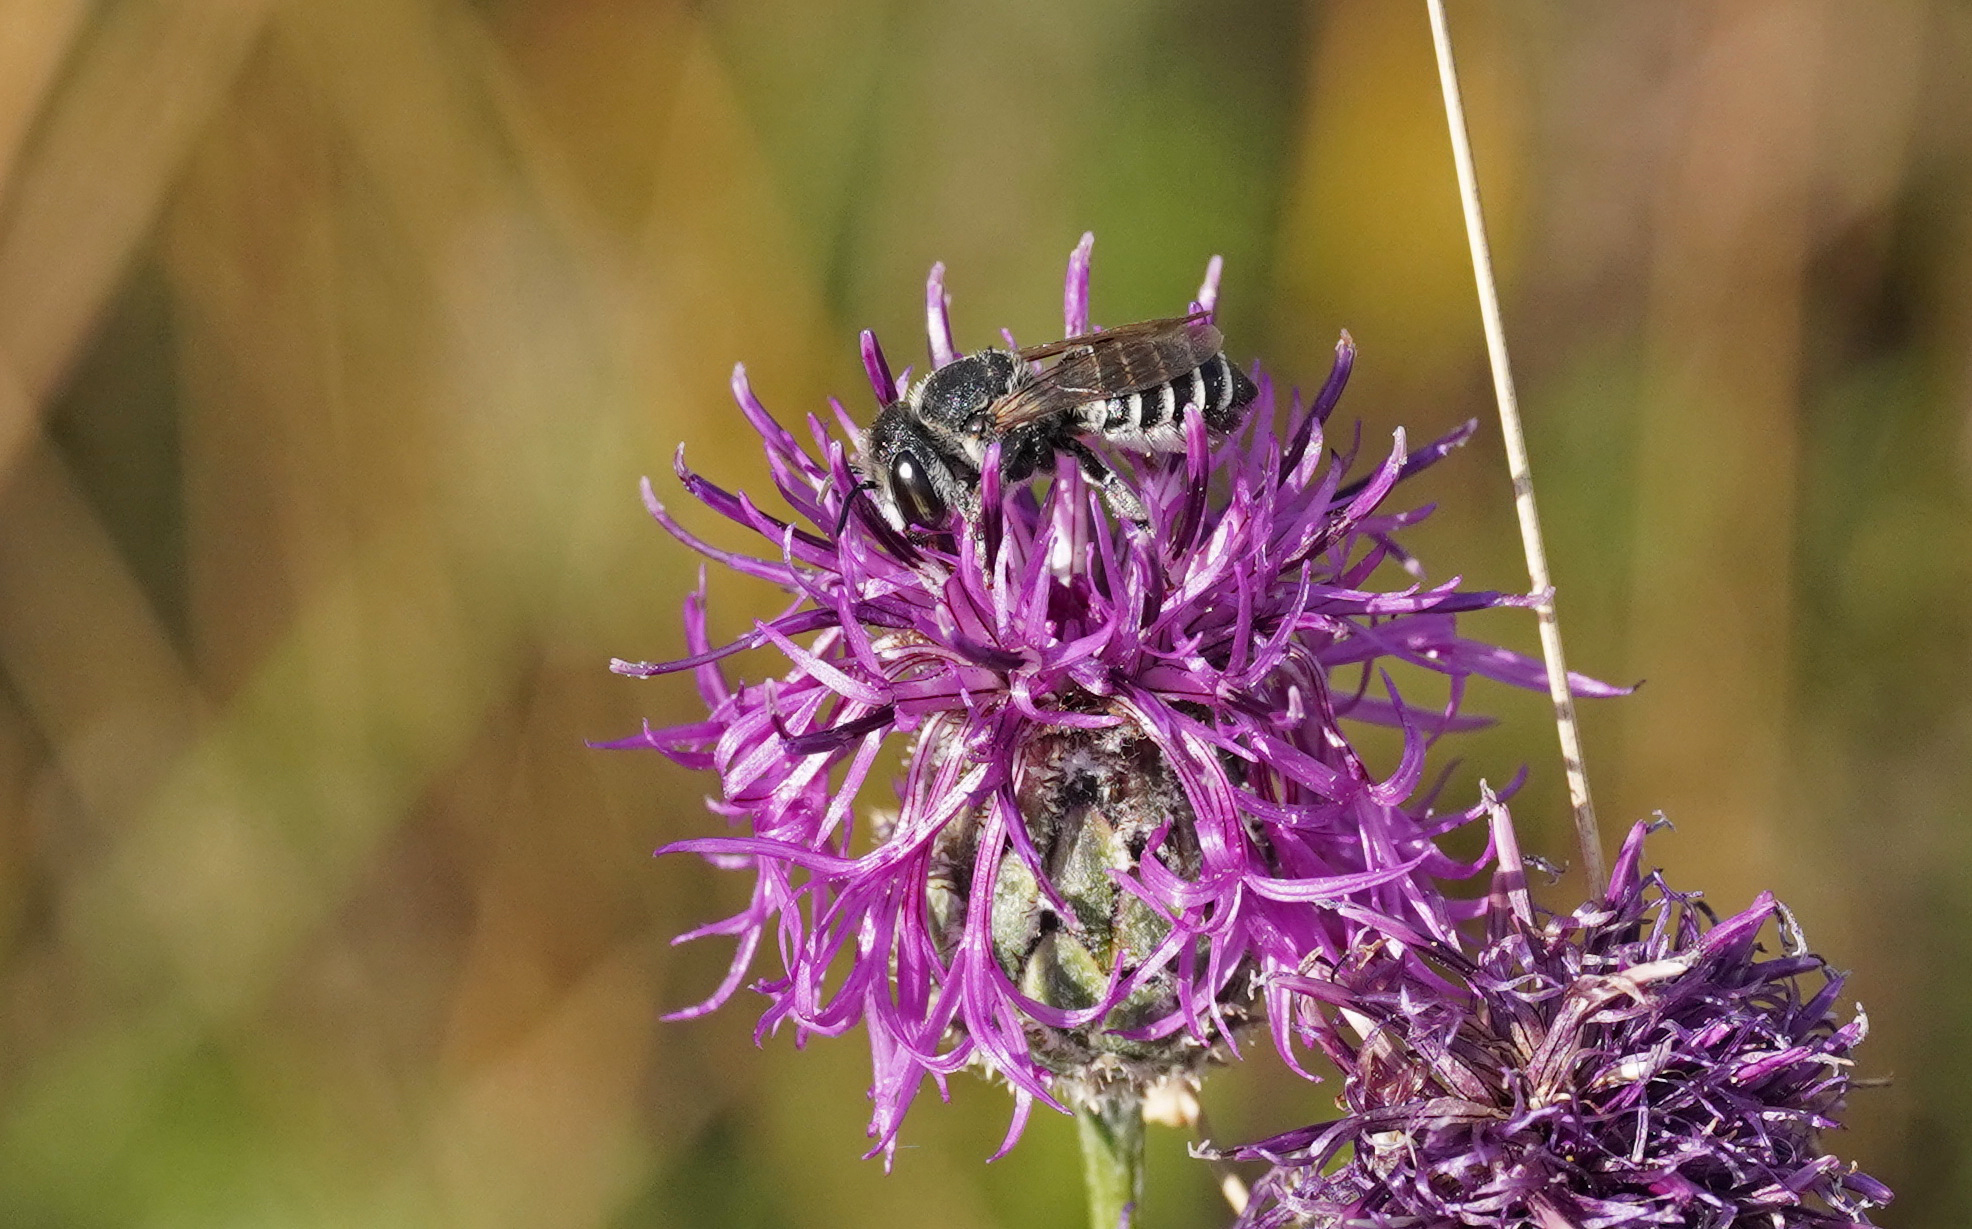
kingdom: Animalia
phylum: Arthropoda
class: Insecta
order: Hymenoptera
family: Megachilidae
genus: Megachile
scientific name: Megachile apicalis
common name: Apical leafcutter bee
